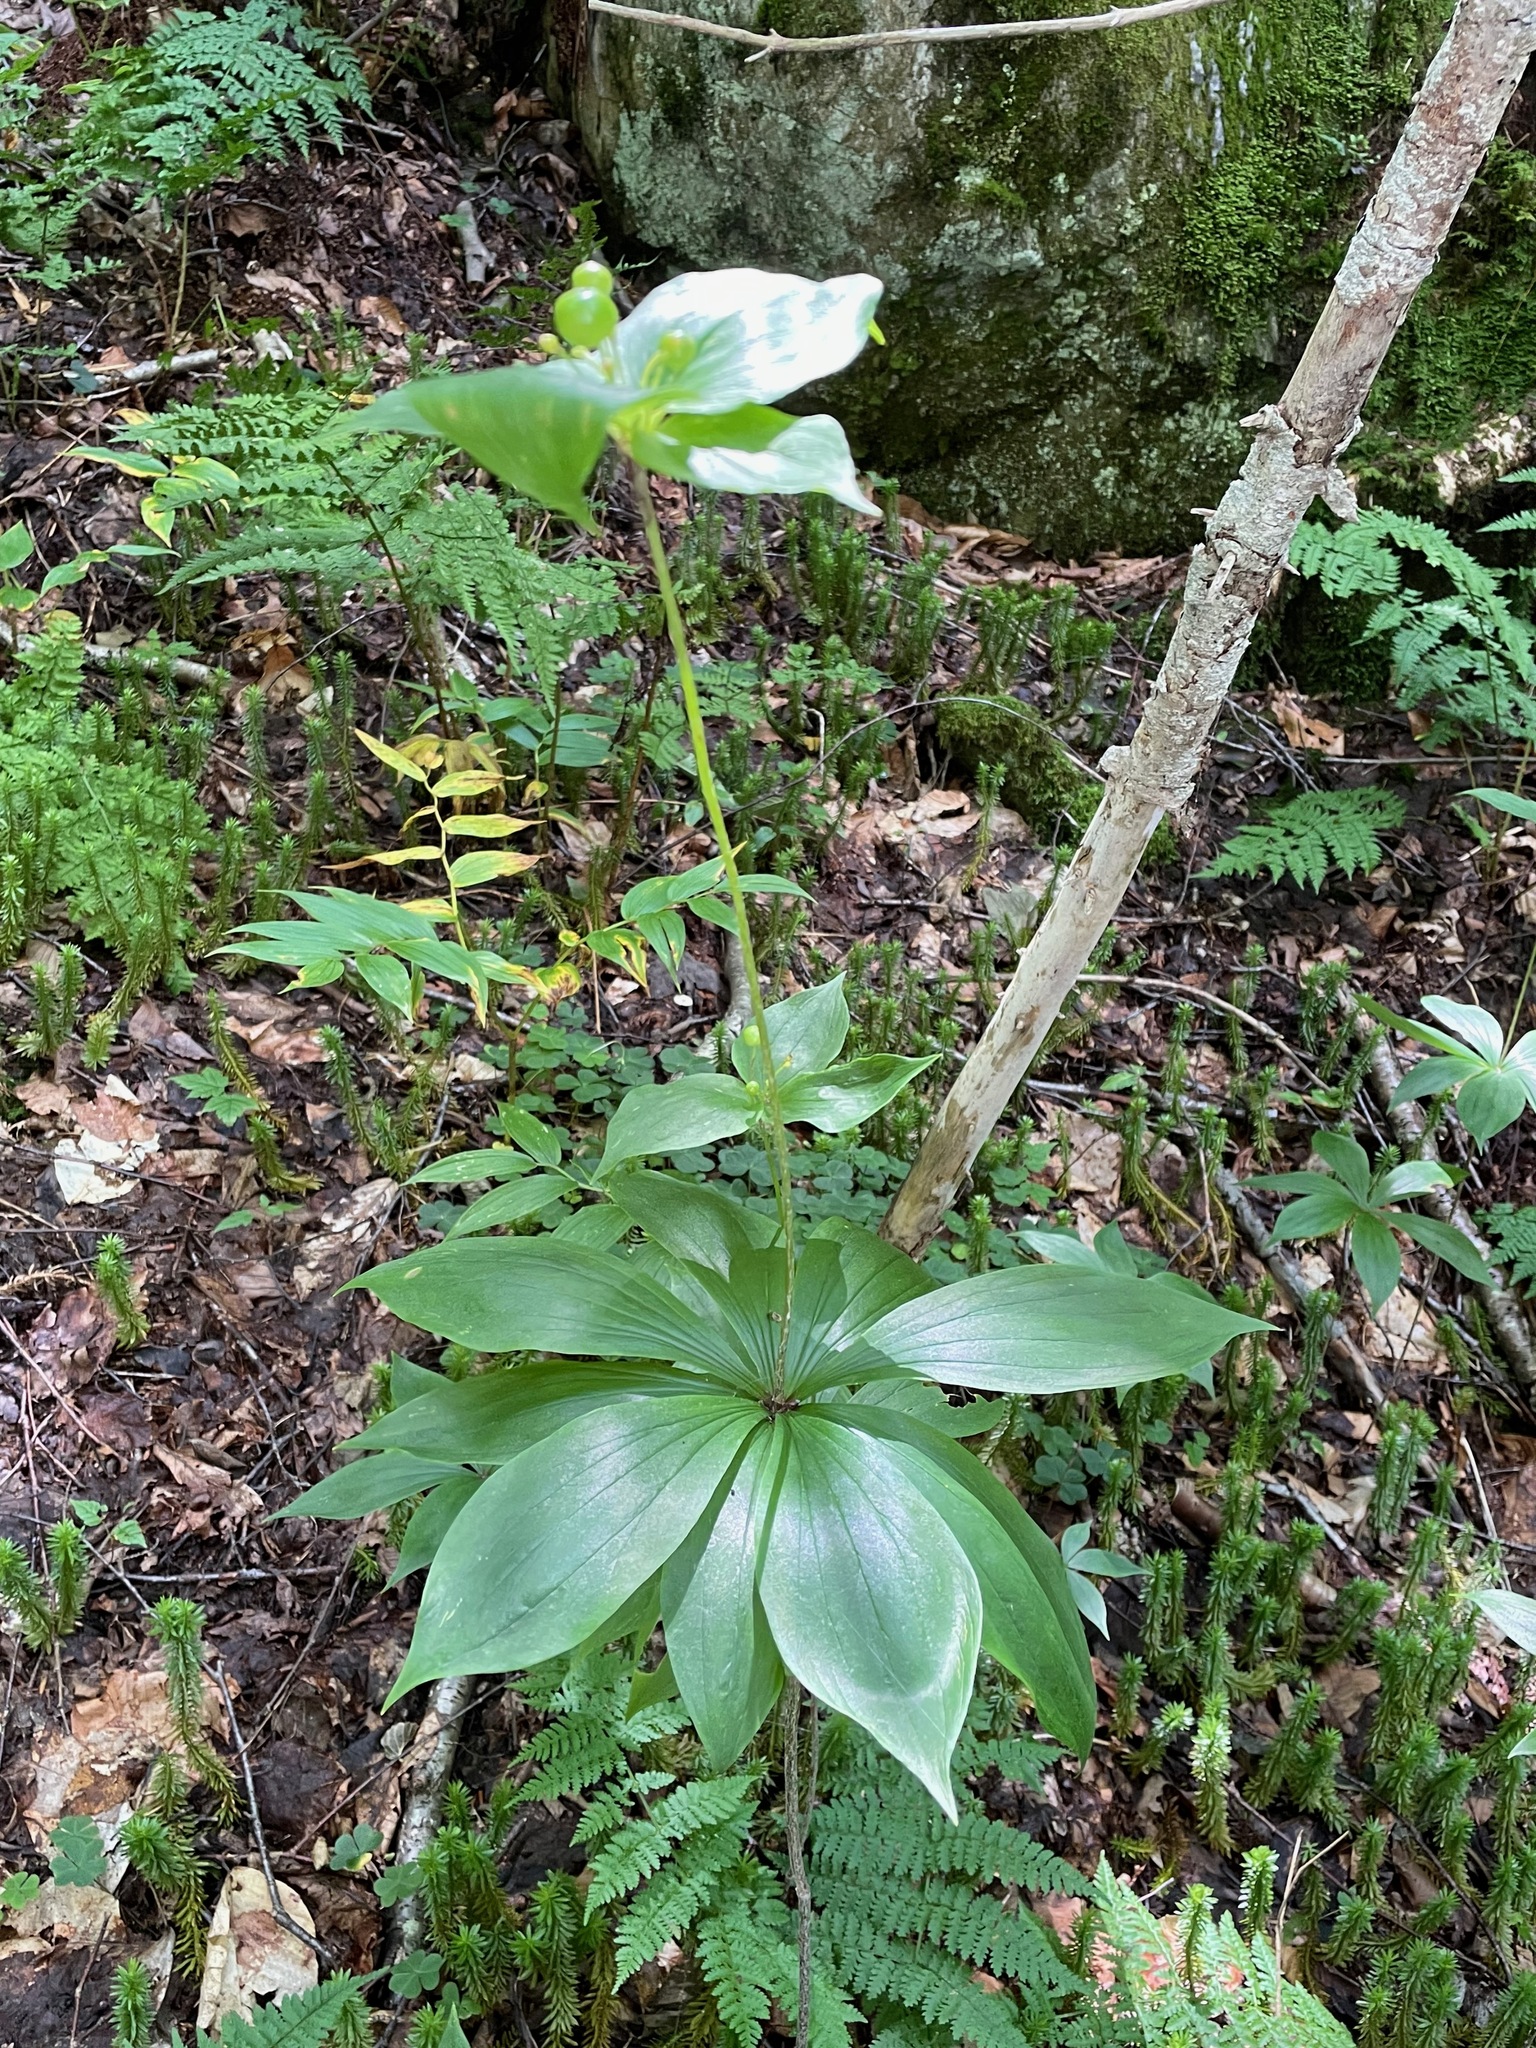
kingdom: Plantae
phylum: Tracheophyta
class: Liliopsida
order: Liliales
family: Liliaceae
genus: Medeola
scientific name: Medeola virginiana
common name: Indian cucumber-root
